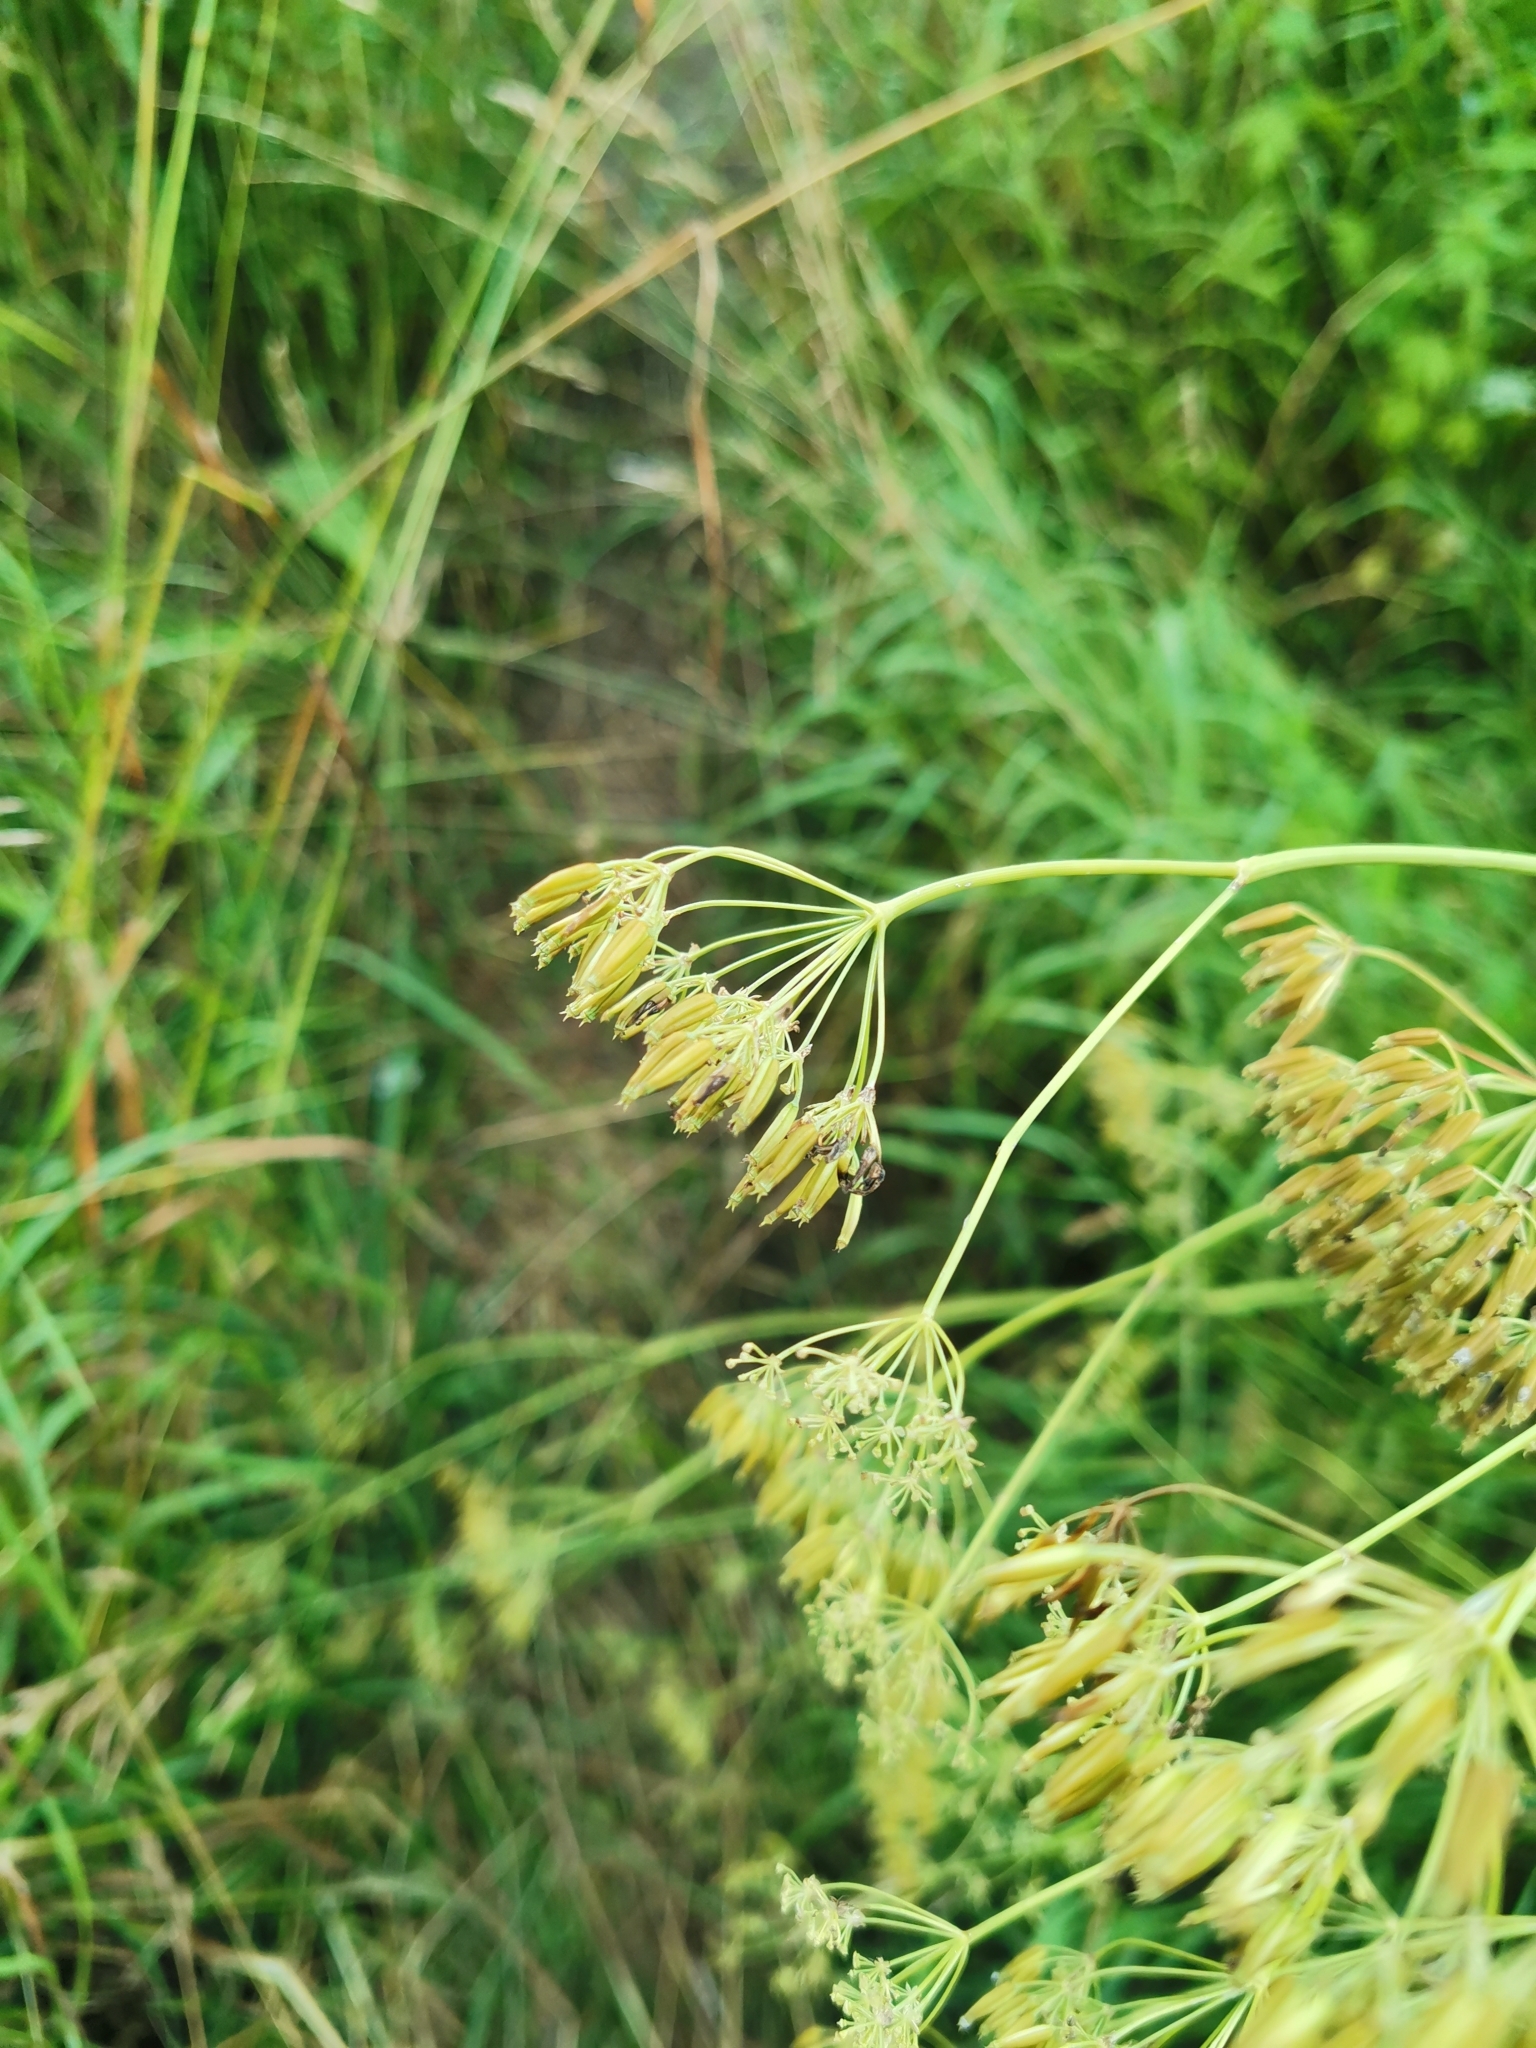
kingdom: Plantae
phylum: Tracheophyta
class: Magnoliopsida
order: Apiales
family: Apiaceae
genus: Anthriscus
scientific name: Anthriscus sylvestris
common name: Cow parsley
